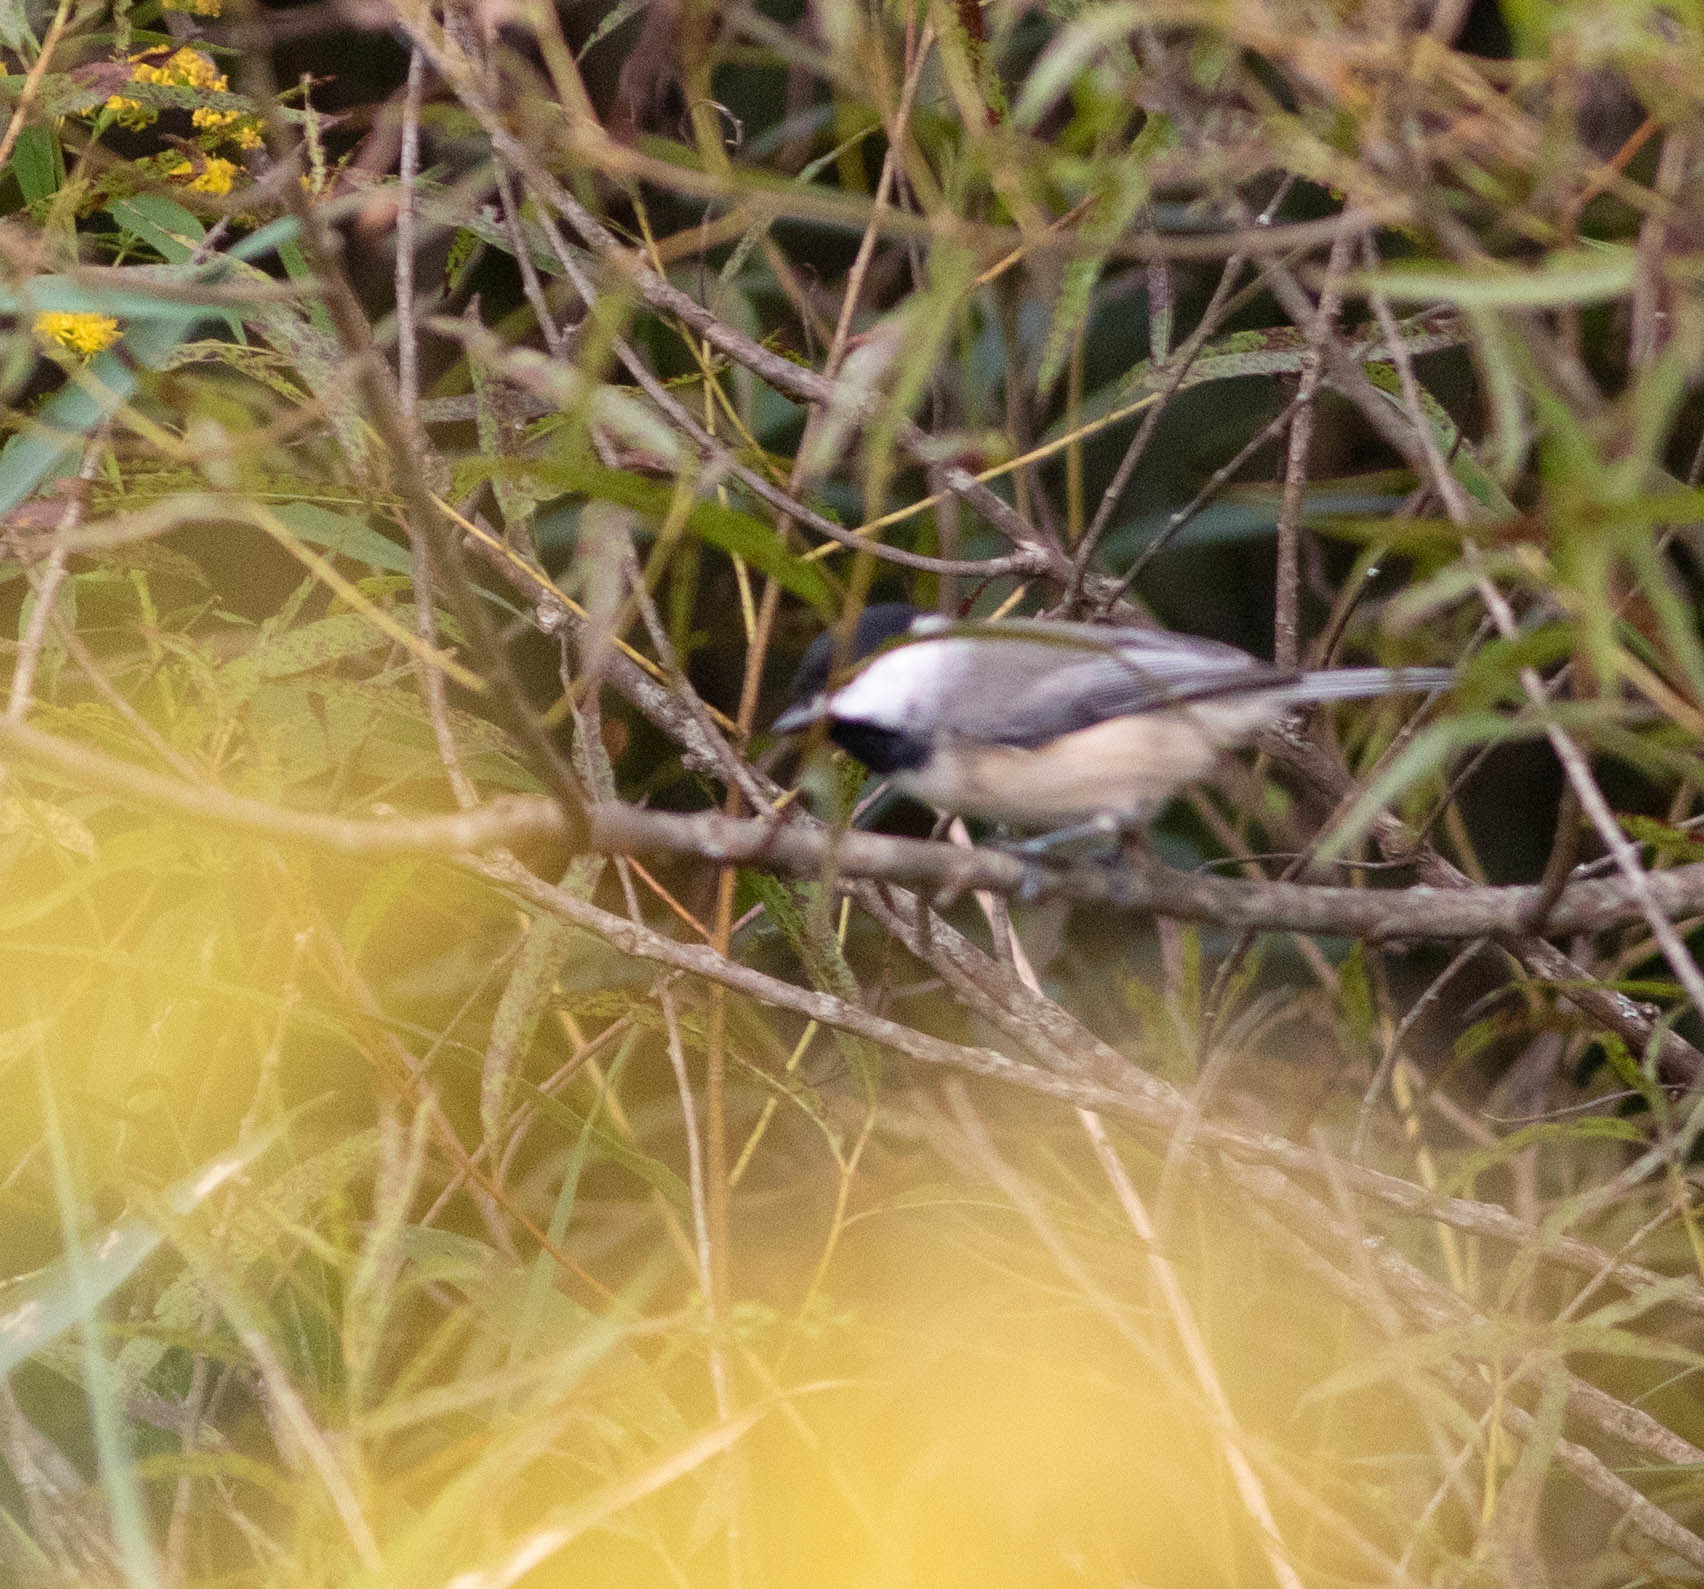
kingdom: Animalia
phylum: Chordata
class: Aves
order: Passeriformes
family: Paridae
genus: Poecile
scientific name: Poecile carolinensis
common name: Carolina chickadee
